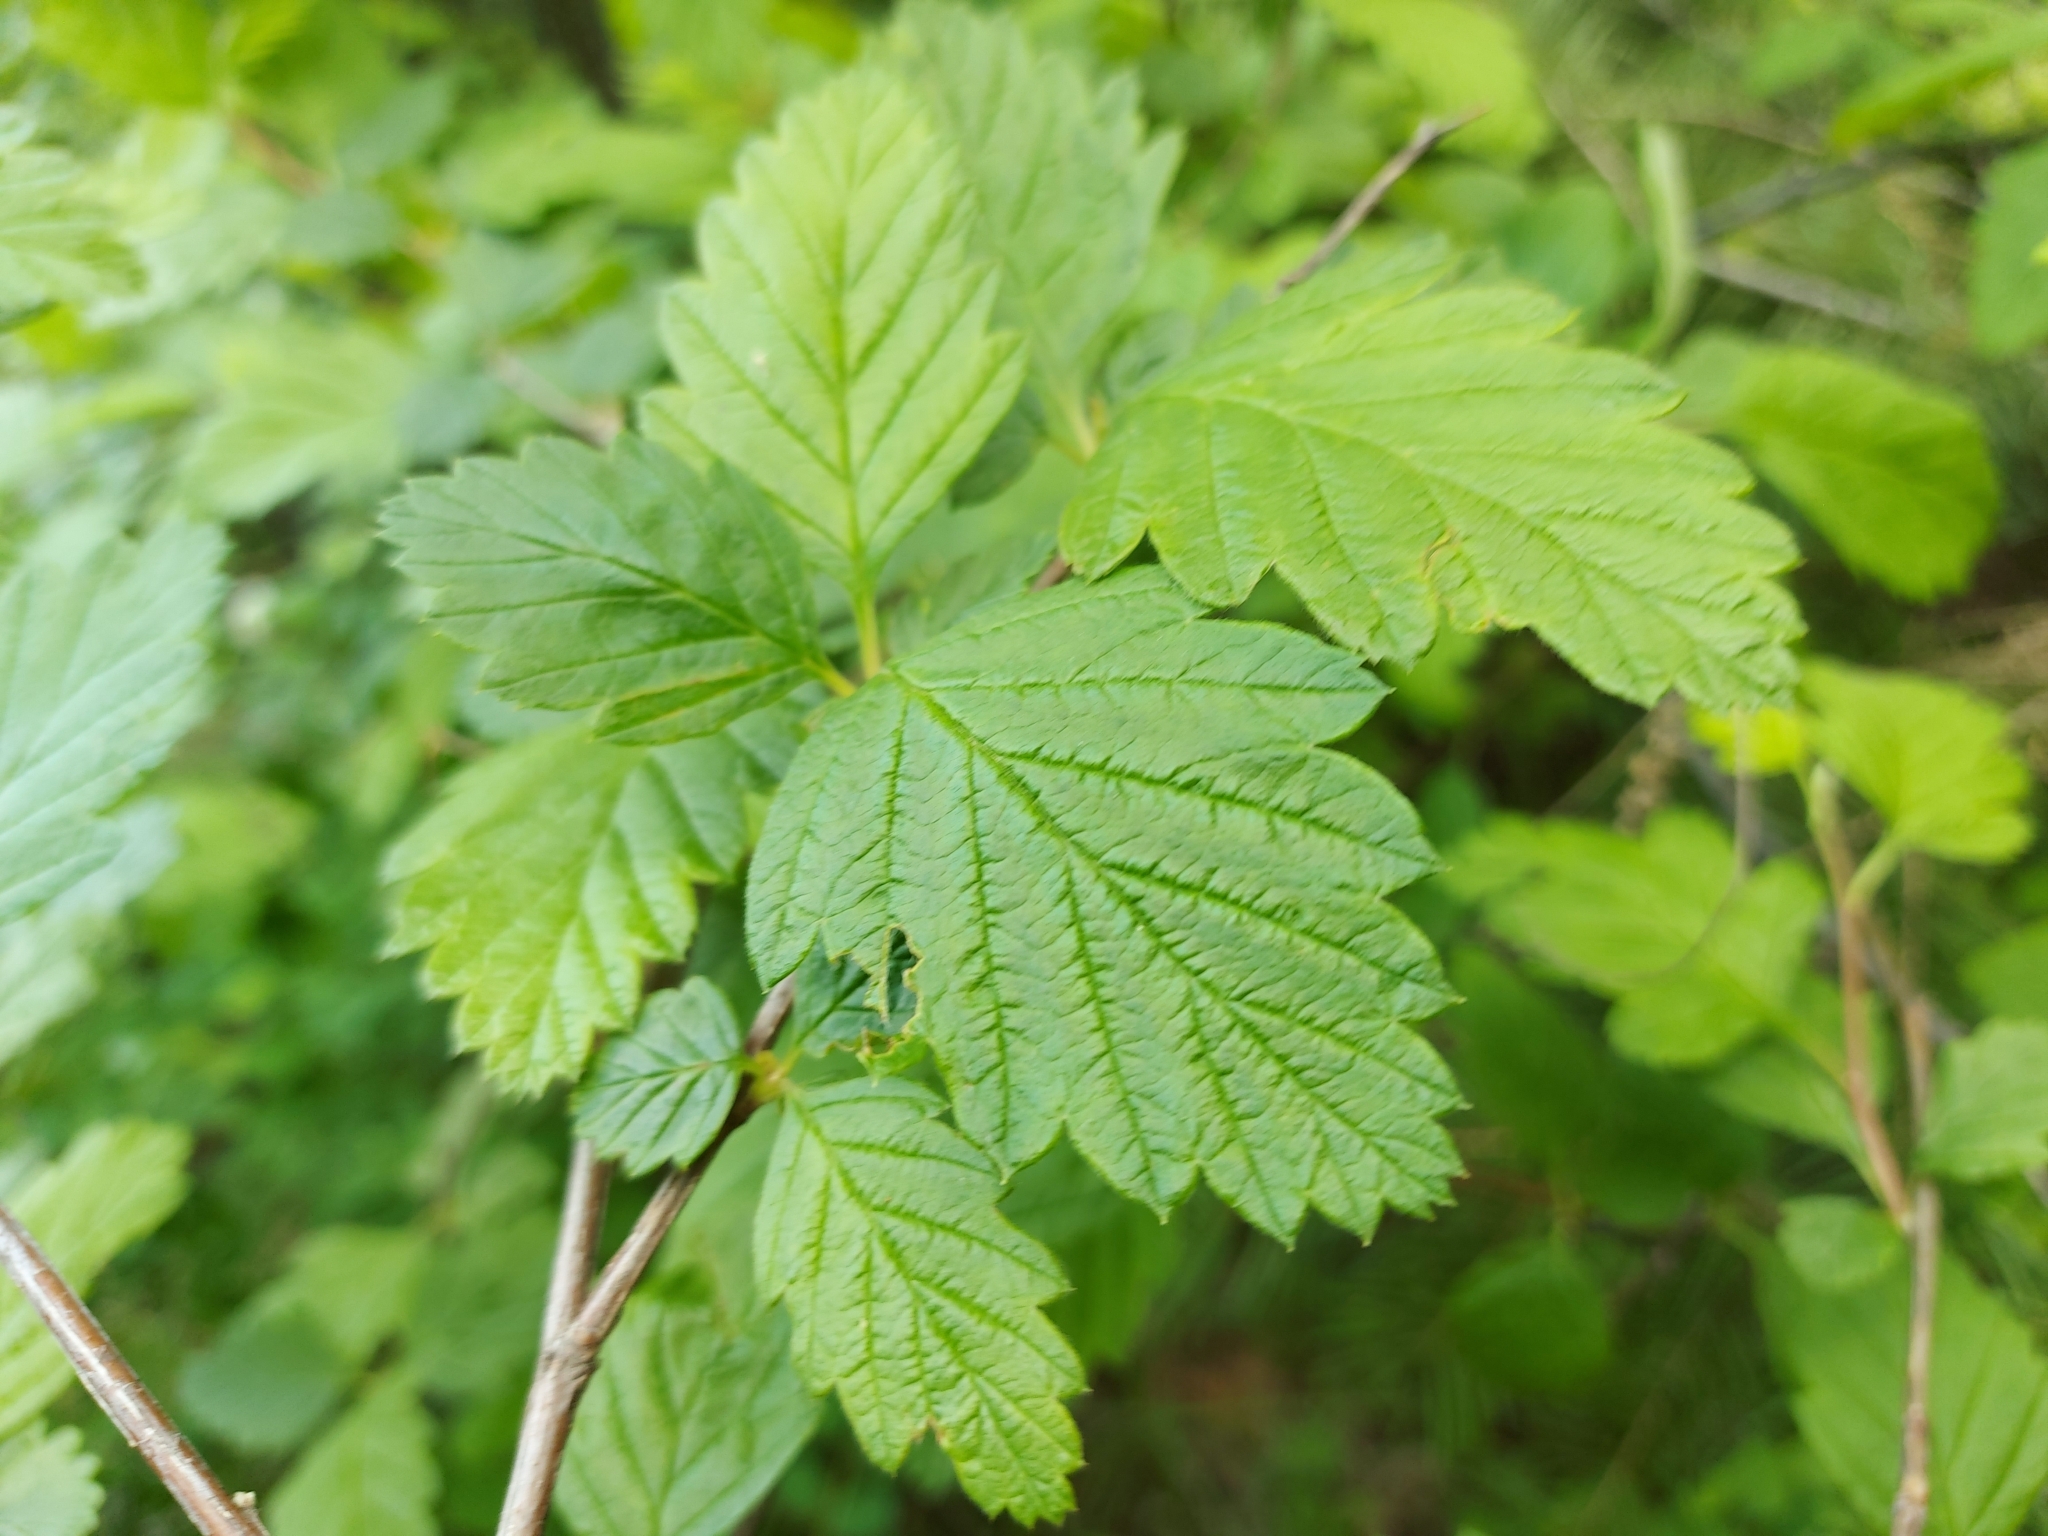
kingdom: Plantae
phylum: Tracheophyta
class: Magnoliopsida
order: Rosales
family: Rosaceae
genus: Holodiscus
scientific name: Holodiscus discolor
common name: Oceanspray
